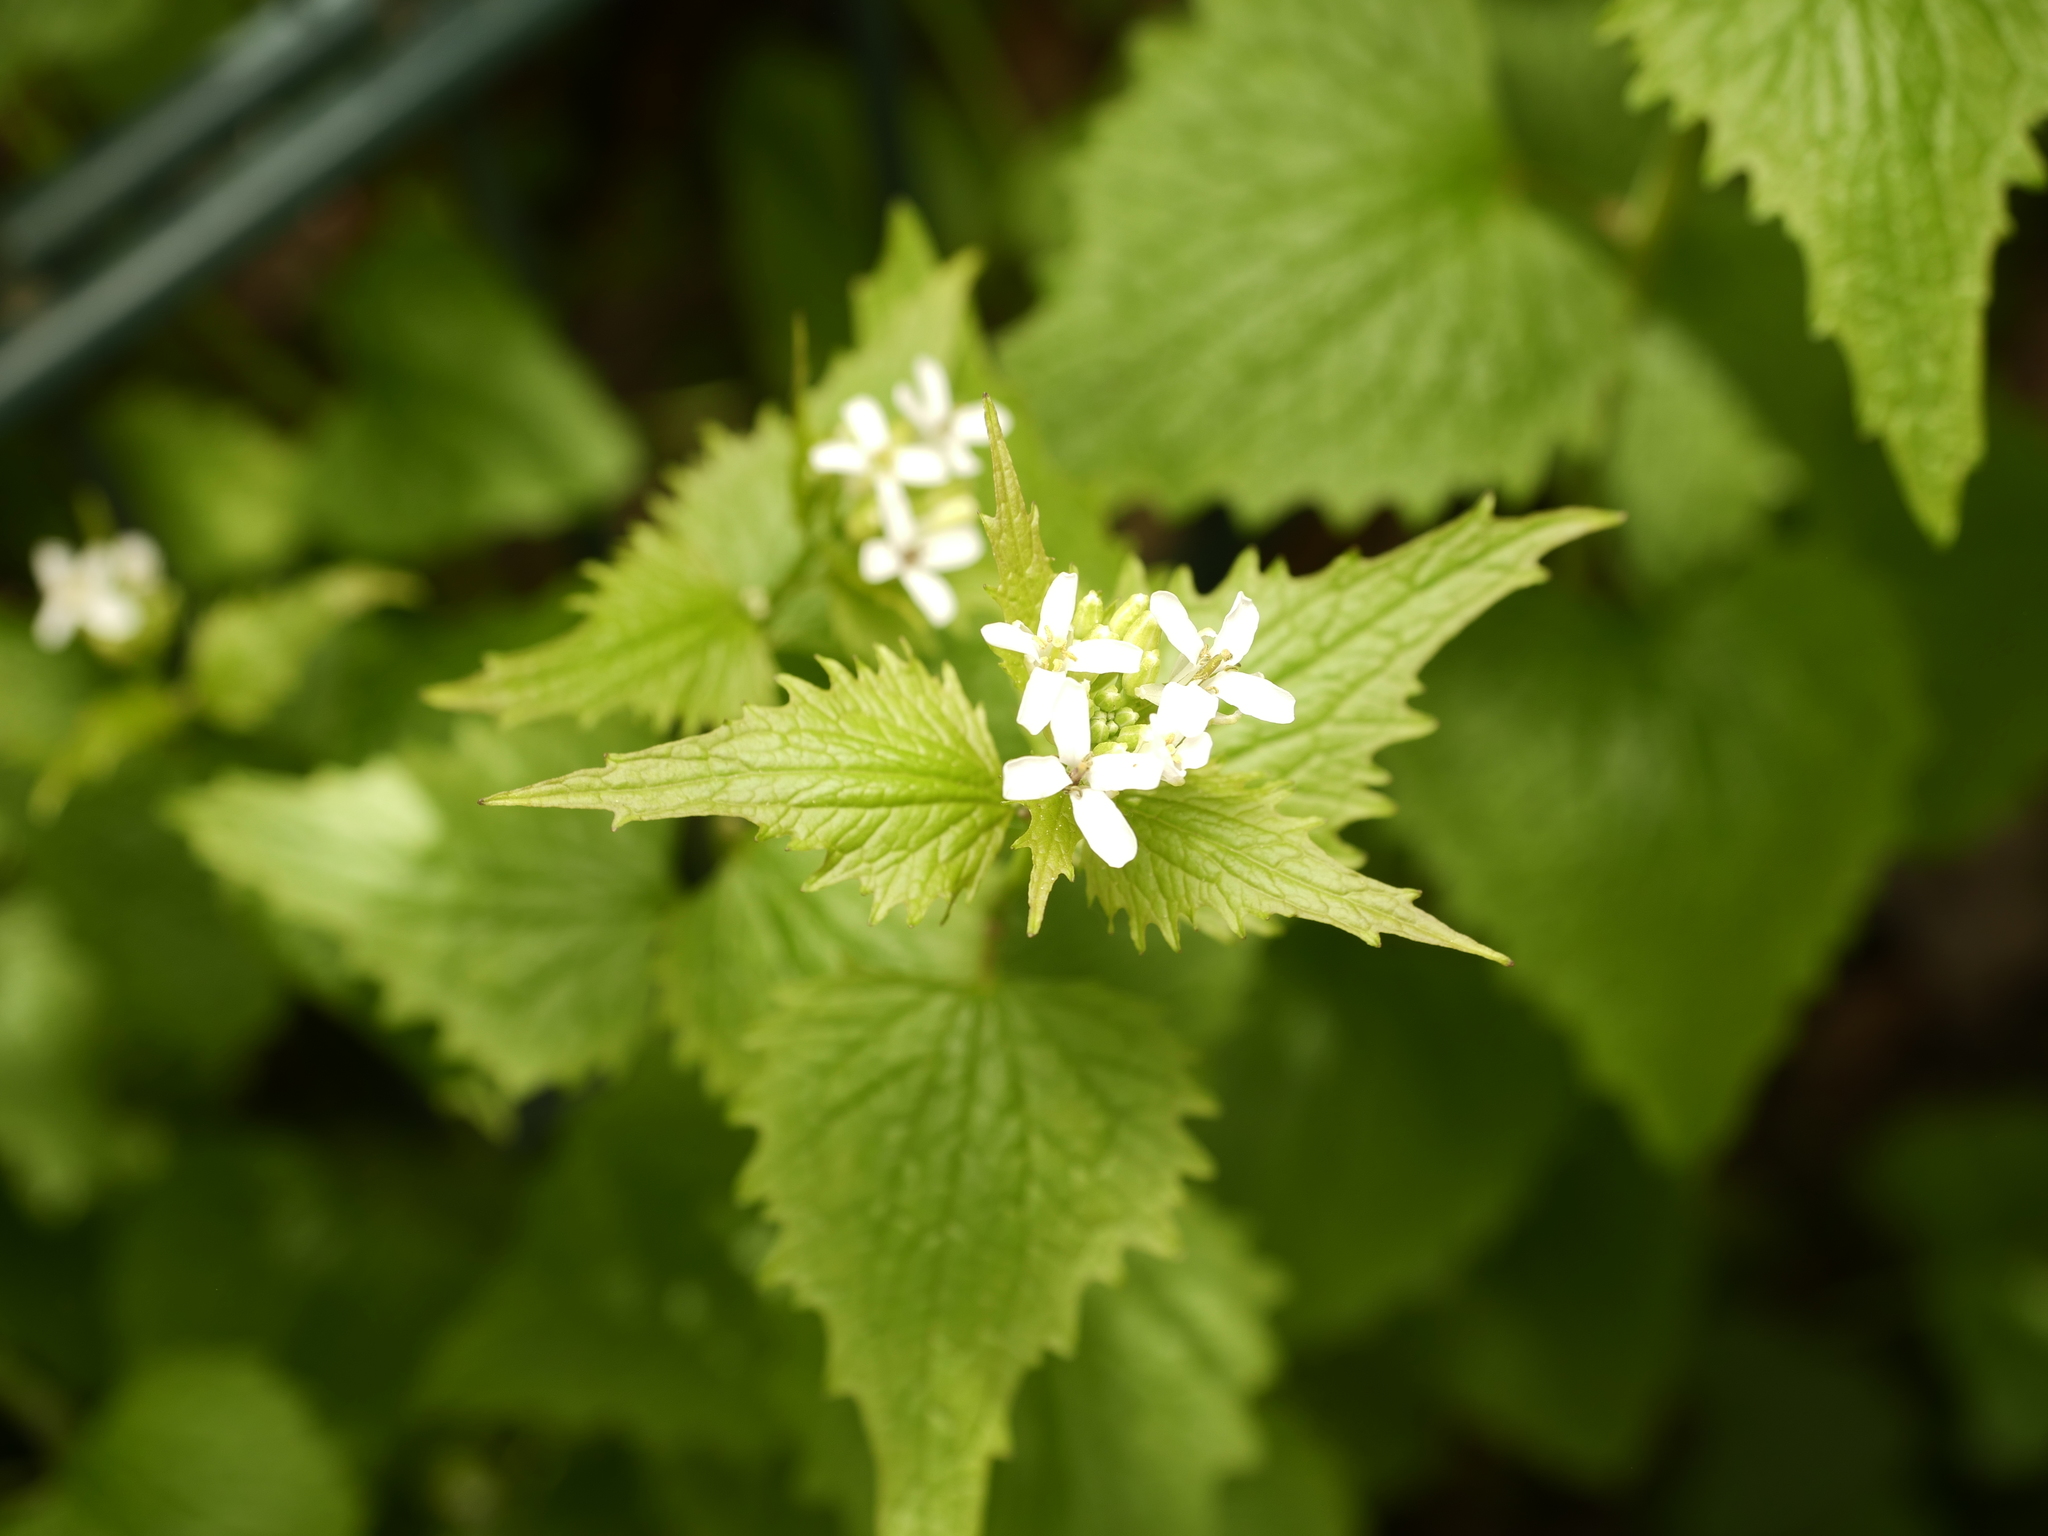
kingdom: Plantae
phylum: Tracheophyta
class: Magnoliopsida
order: Brassicales
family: Brassicaceae
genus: Alliaria
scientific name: Alliaria petiolata
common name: Garlic mustard
